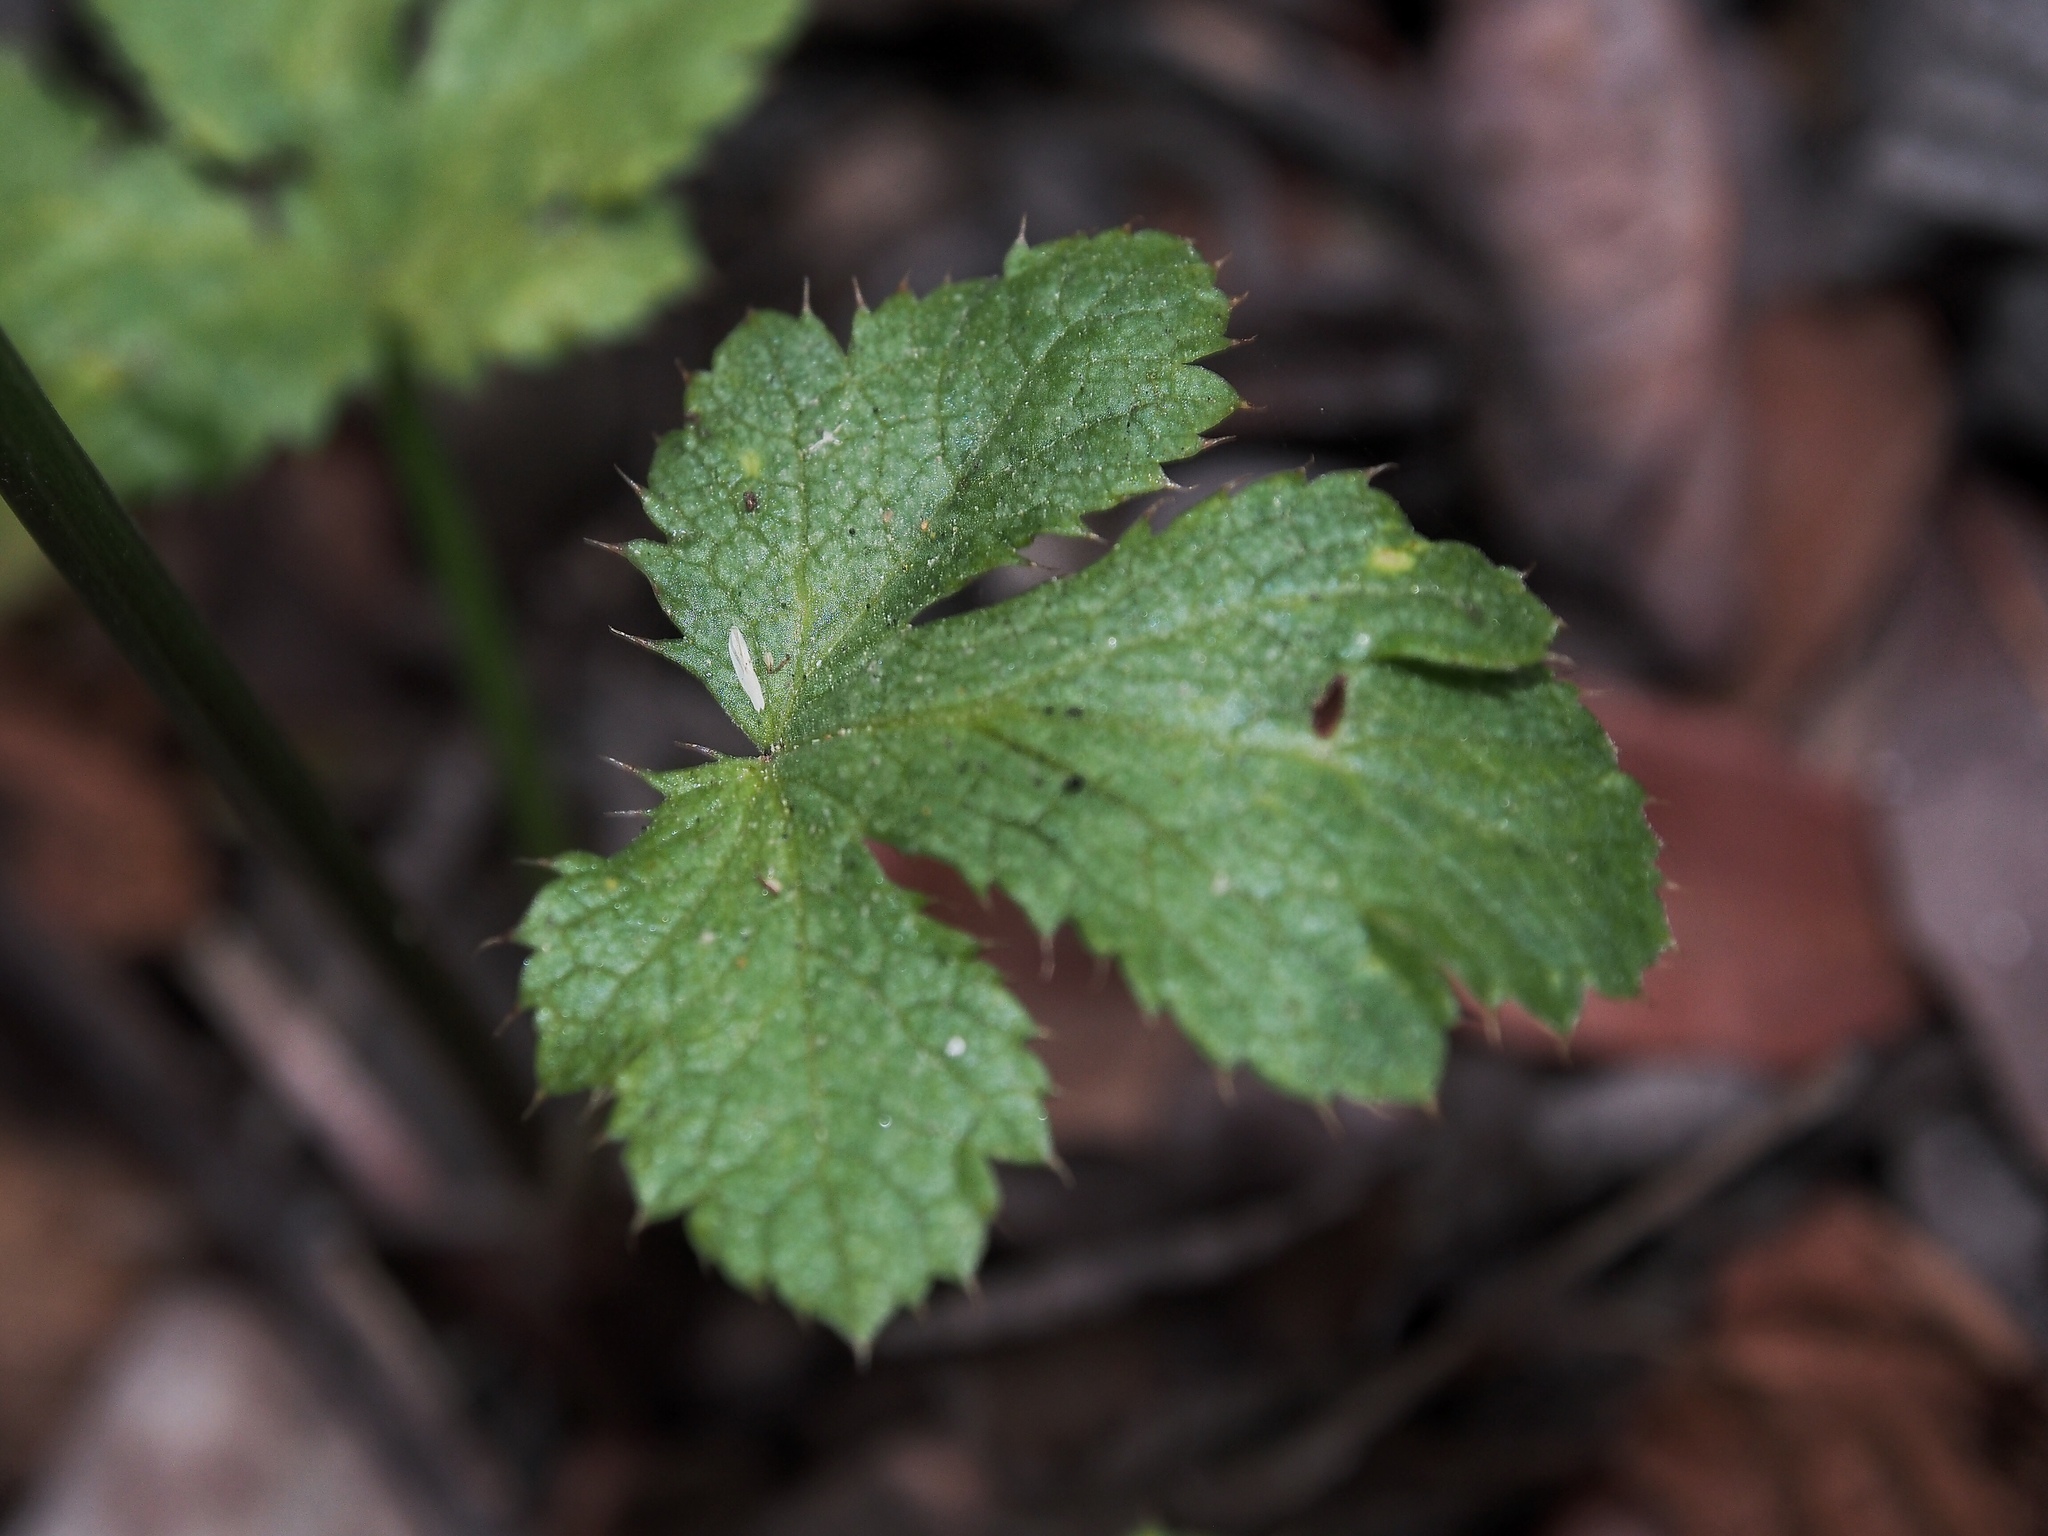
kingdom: Plantae
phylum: Tracheophyta
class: Magnoliopsida
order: Apiales
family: Apiaceae
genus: Sanicula
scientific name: Sanicula crassicaulis
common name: Western snakeroot
